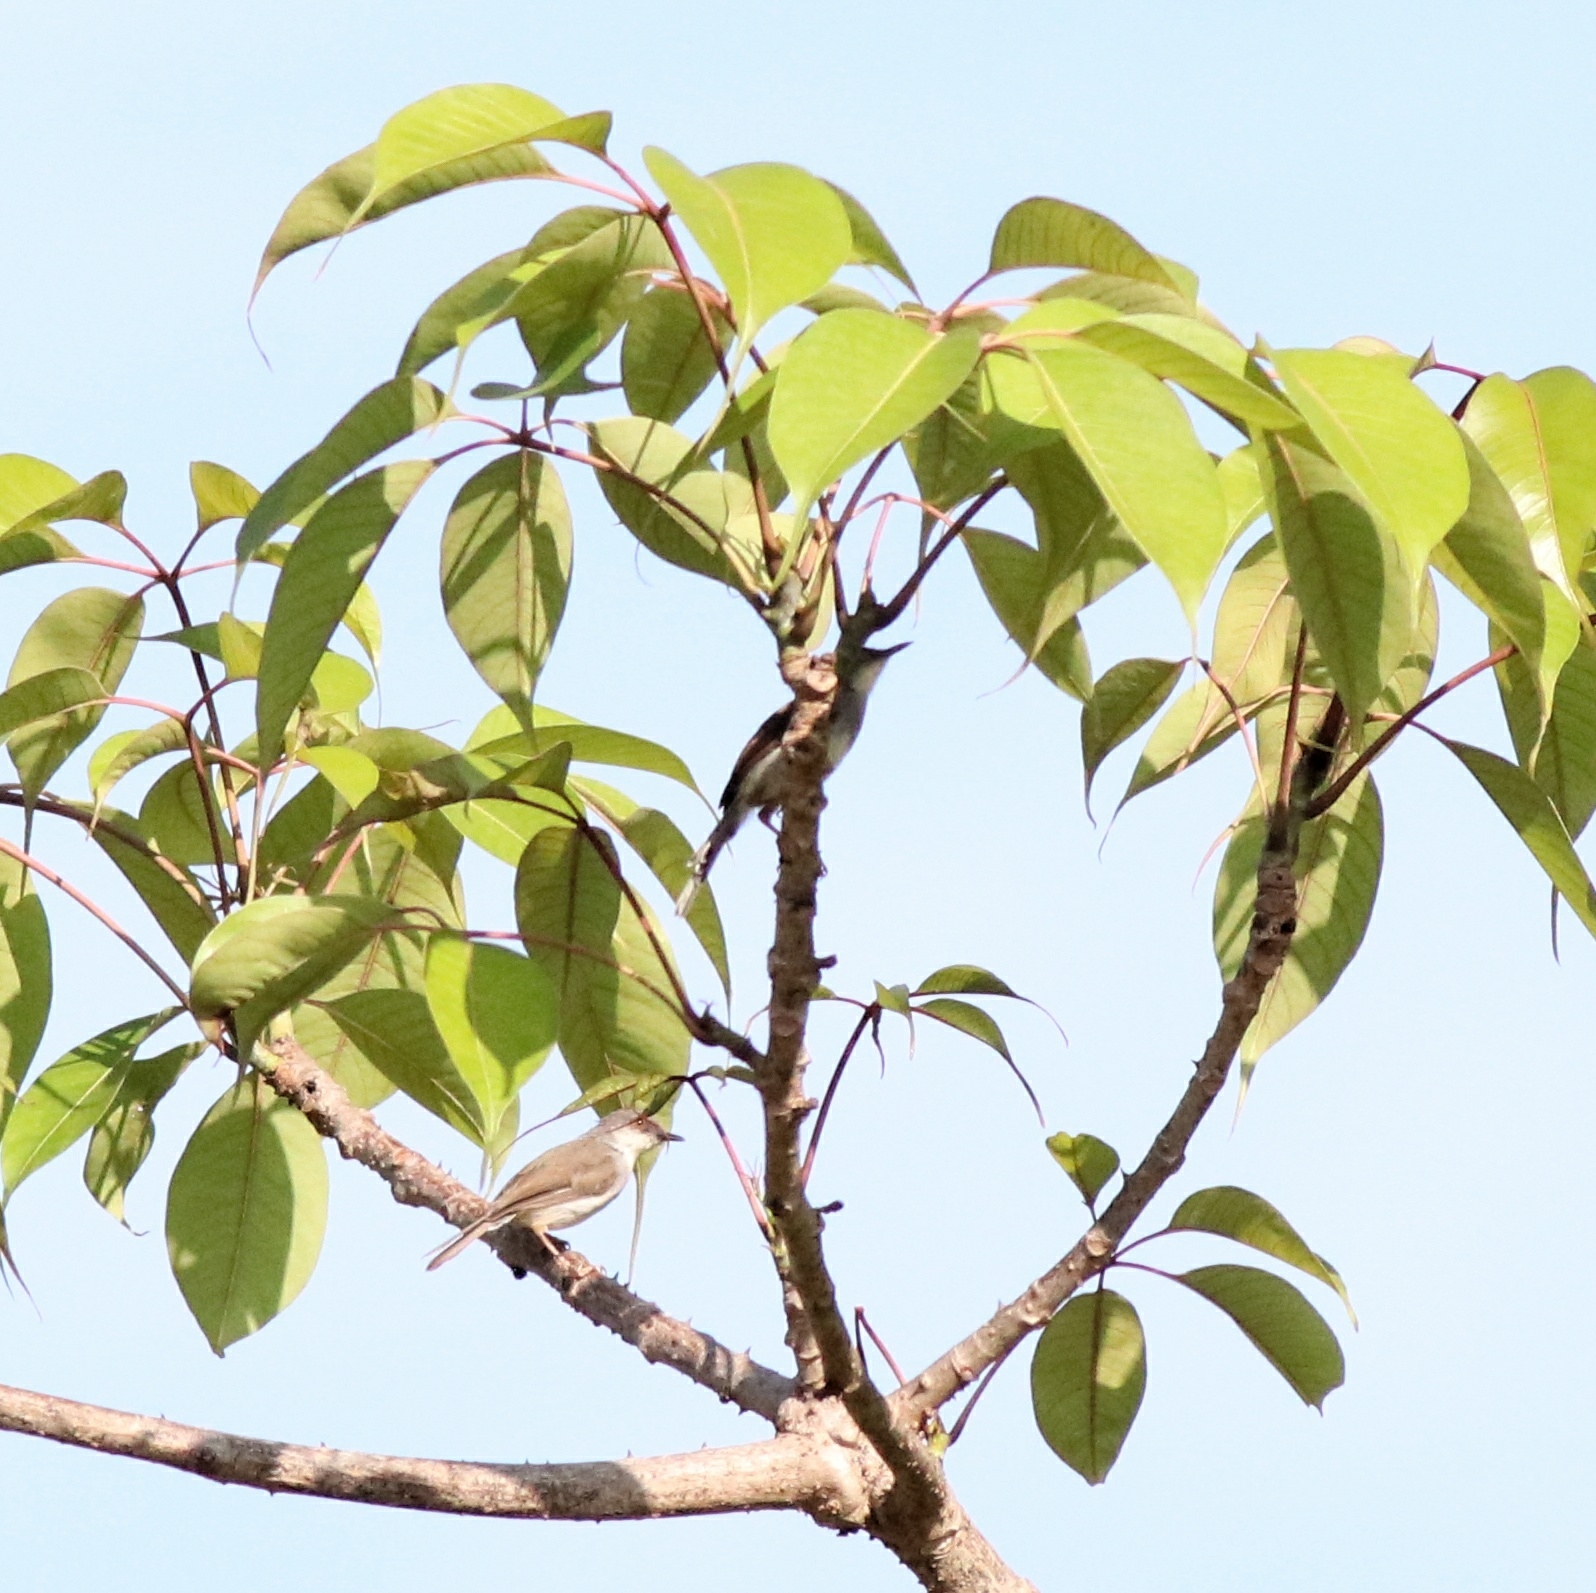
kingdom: Animalia
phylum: Chordata
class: Aves
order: Passeriformes
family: Cisticolidae
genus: Prinia
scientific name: Prinia hodgsonii
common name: Grey-breasted prinia
